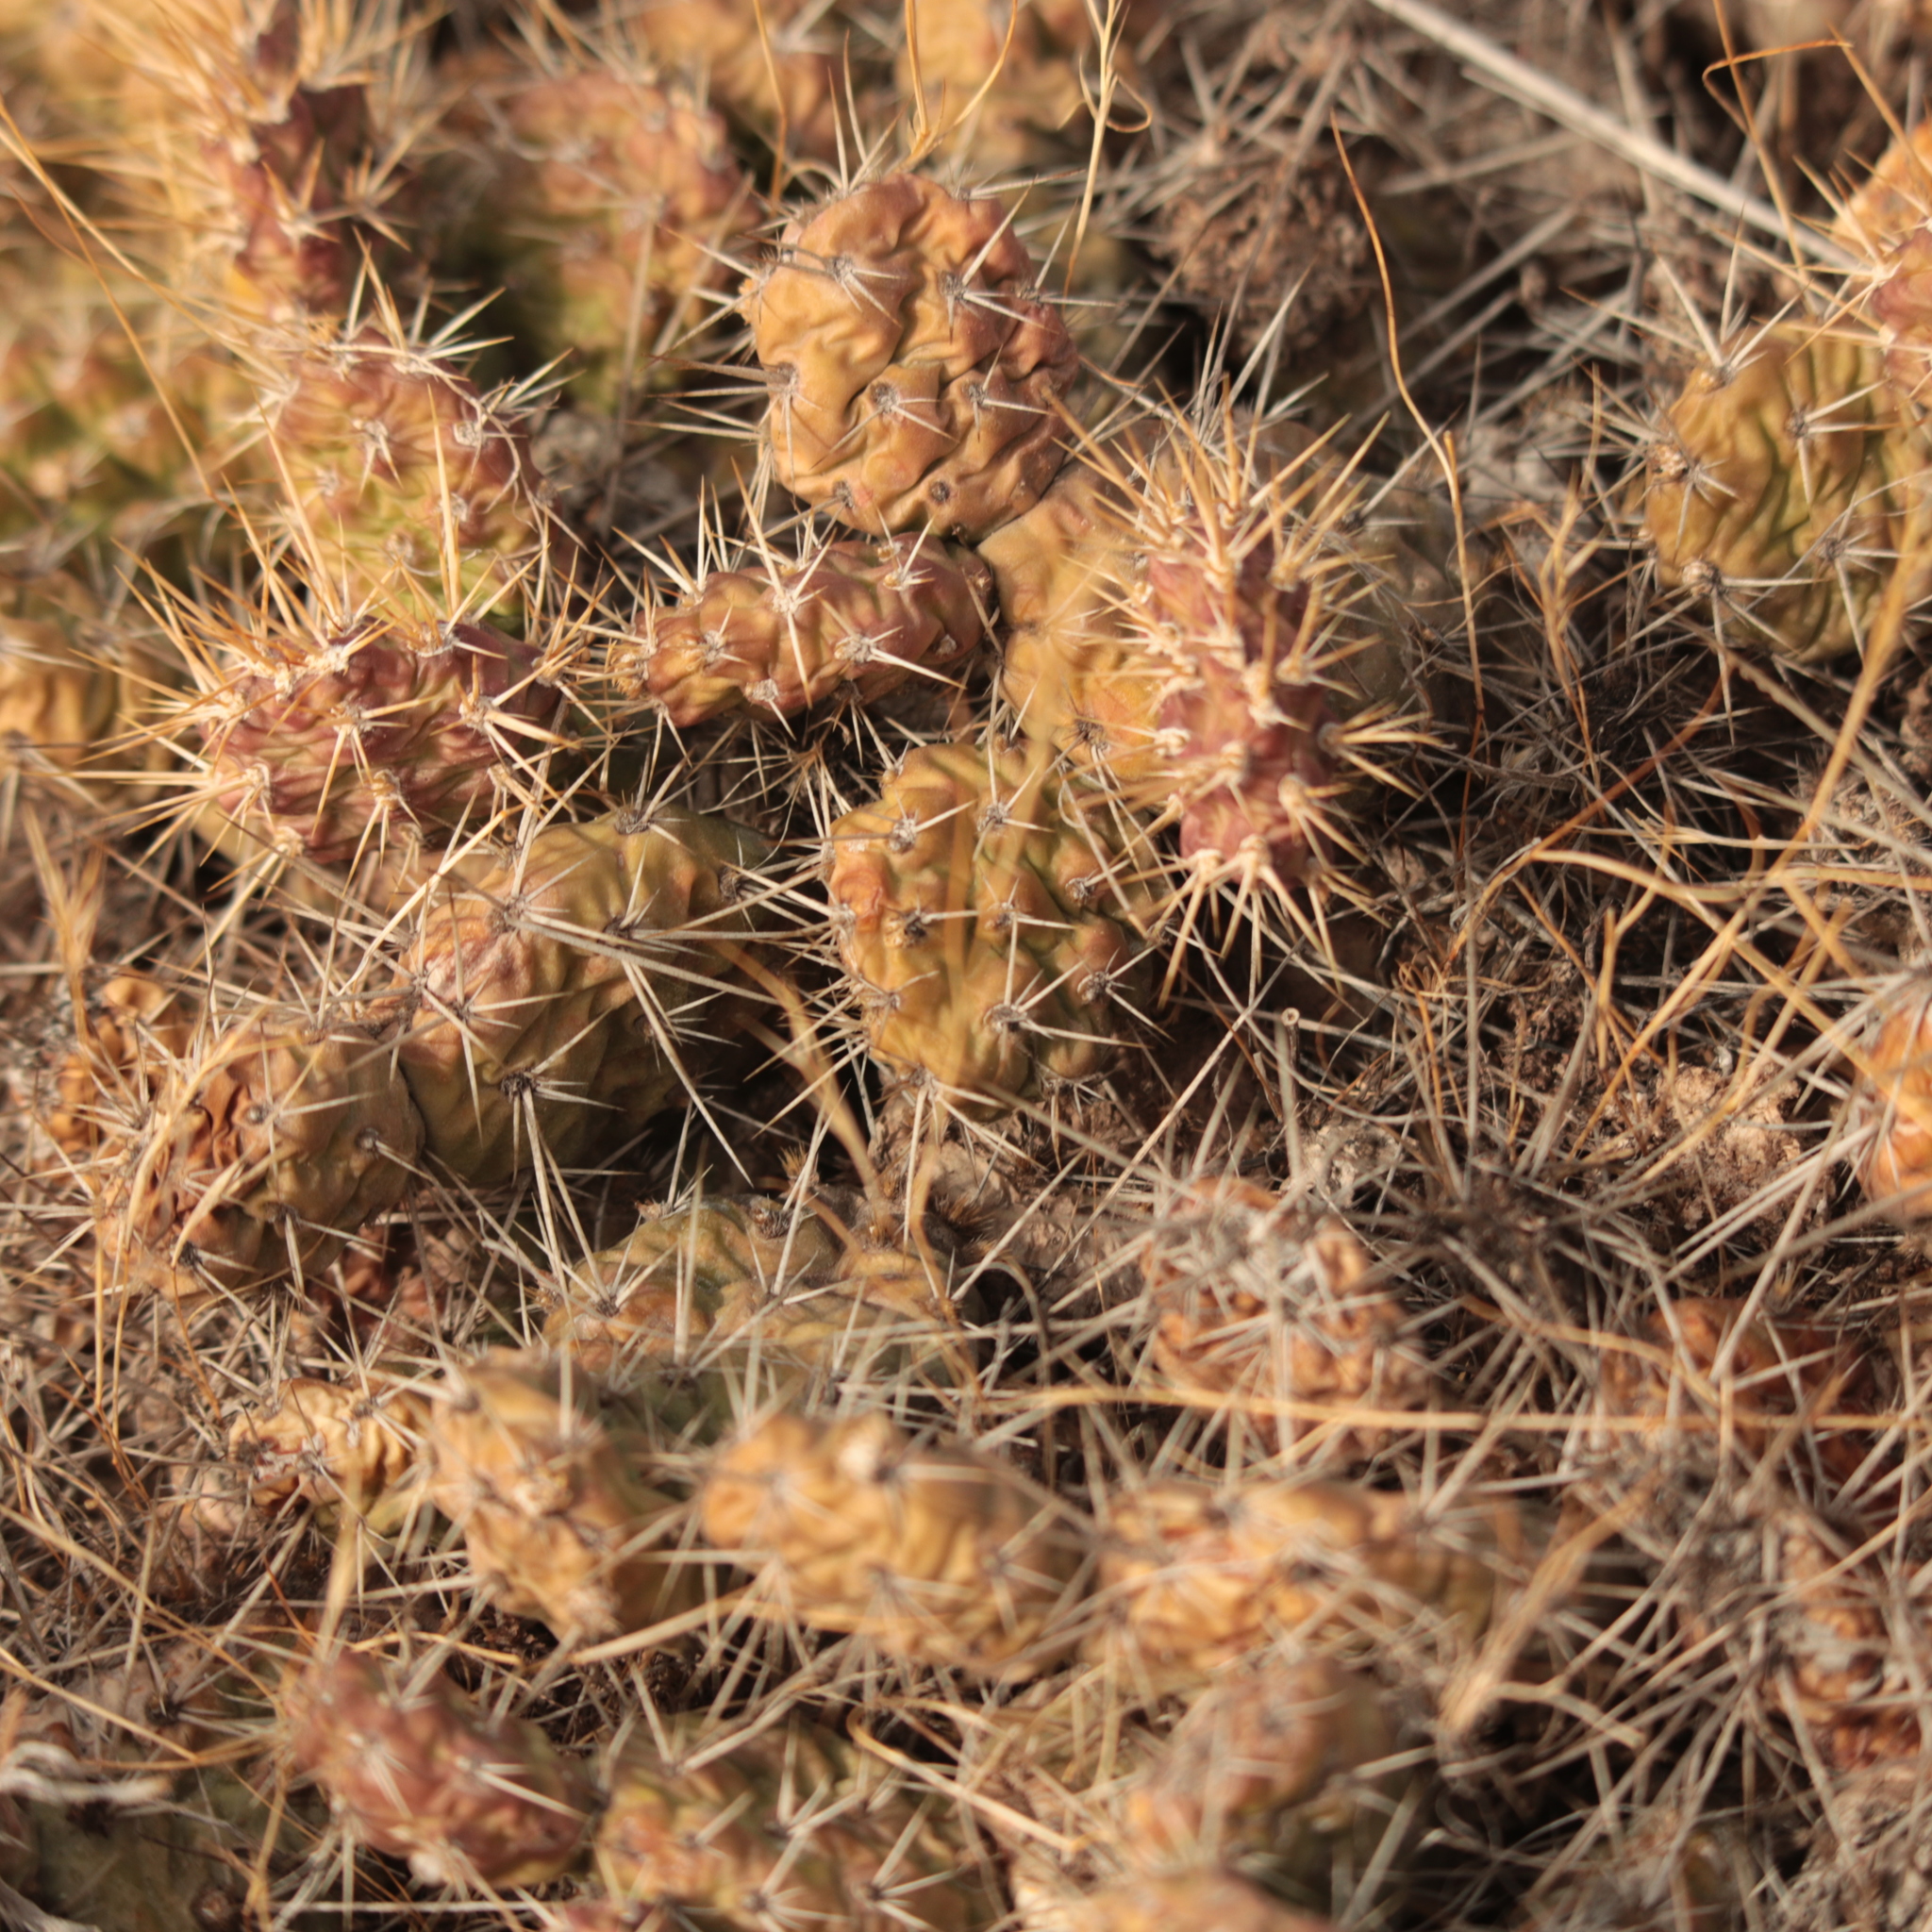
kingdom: Plantae
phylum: Tracheophyta
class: Magnoliopsida
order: Caryophyllales
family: Cactaceae
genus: Opuntia
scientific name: Opuntia fragilis
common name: Brittle cactus
